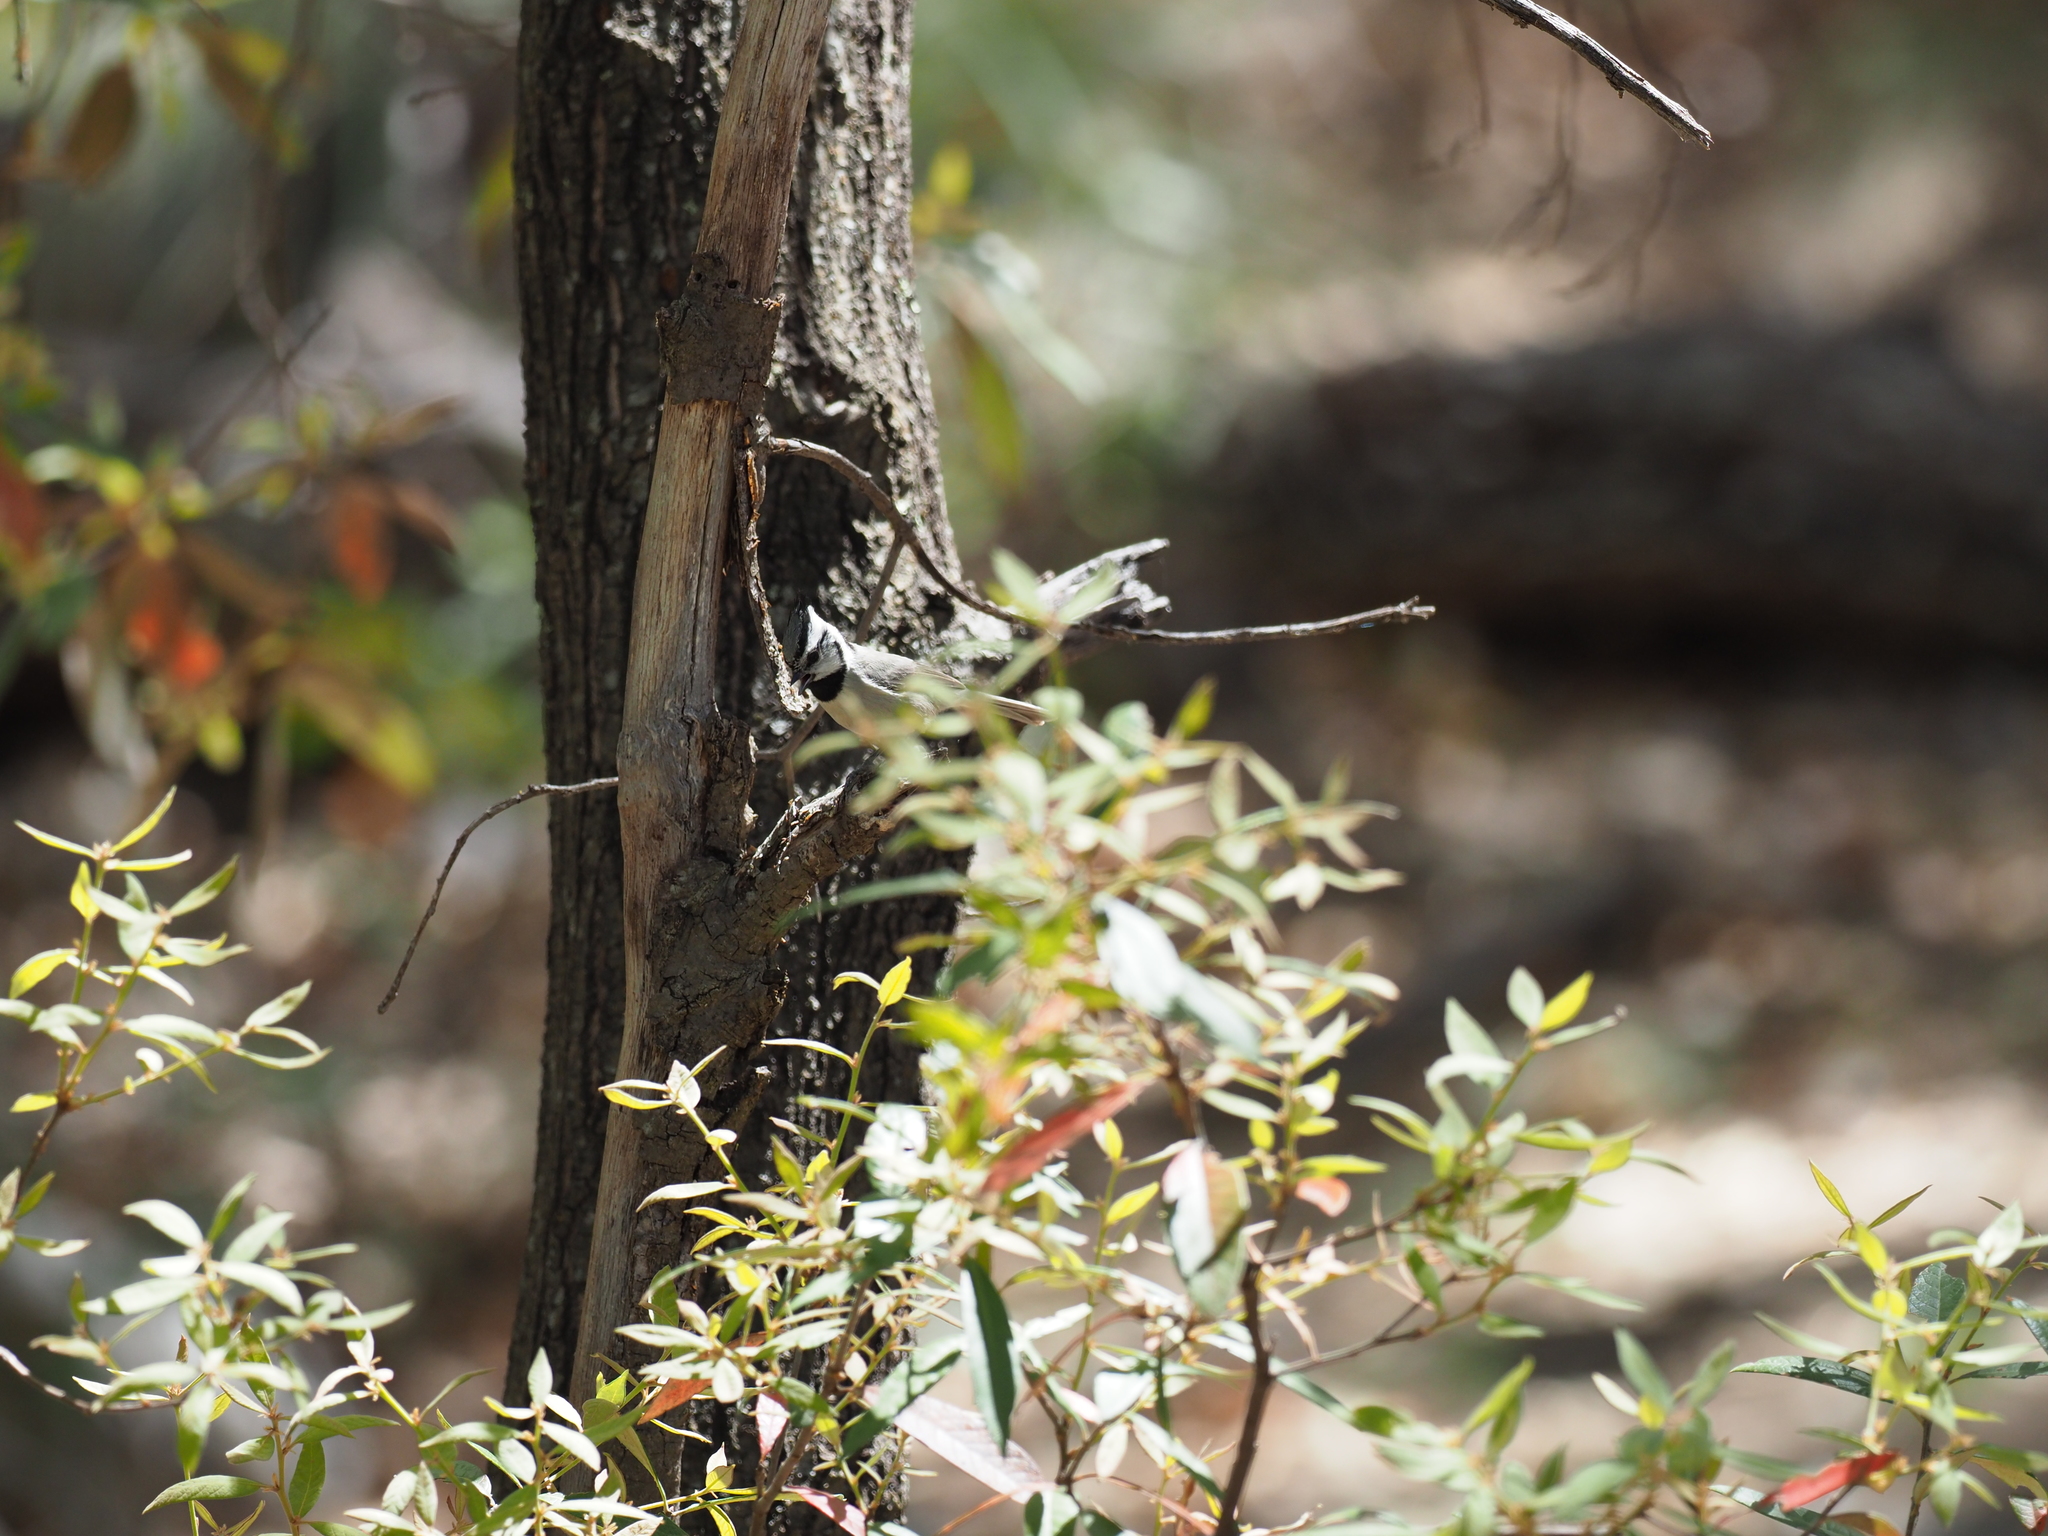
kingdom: Animalia
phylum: Chordata
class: Aves
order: Passeriformes
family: Paridae
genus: Baeolophus
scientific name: Baeolophus wollweberi
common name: Bridled titmouse
